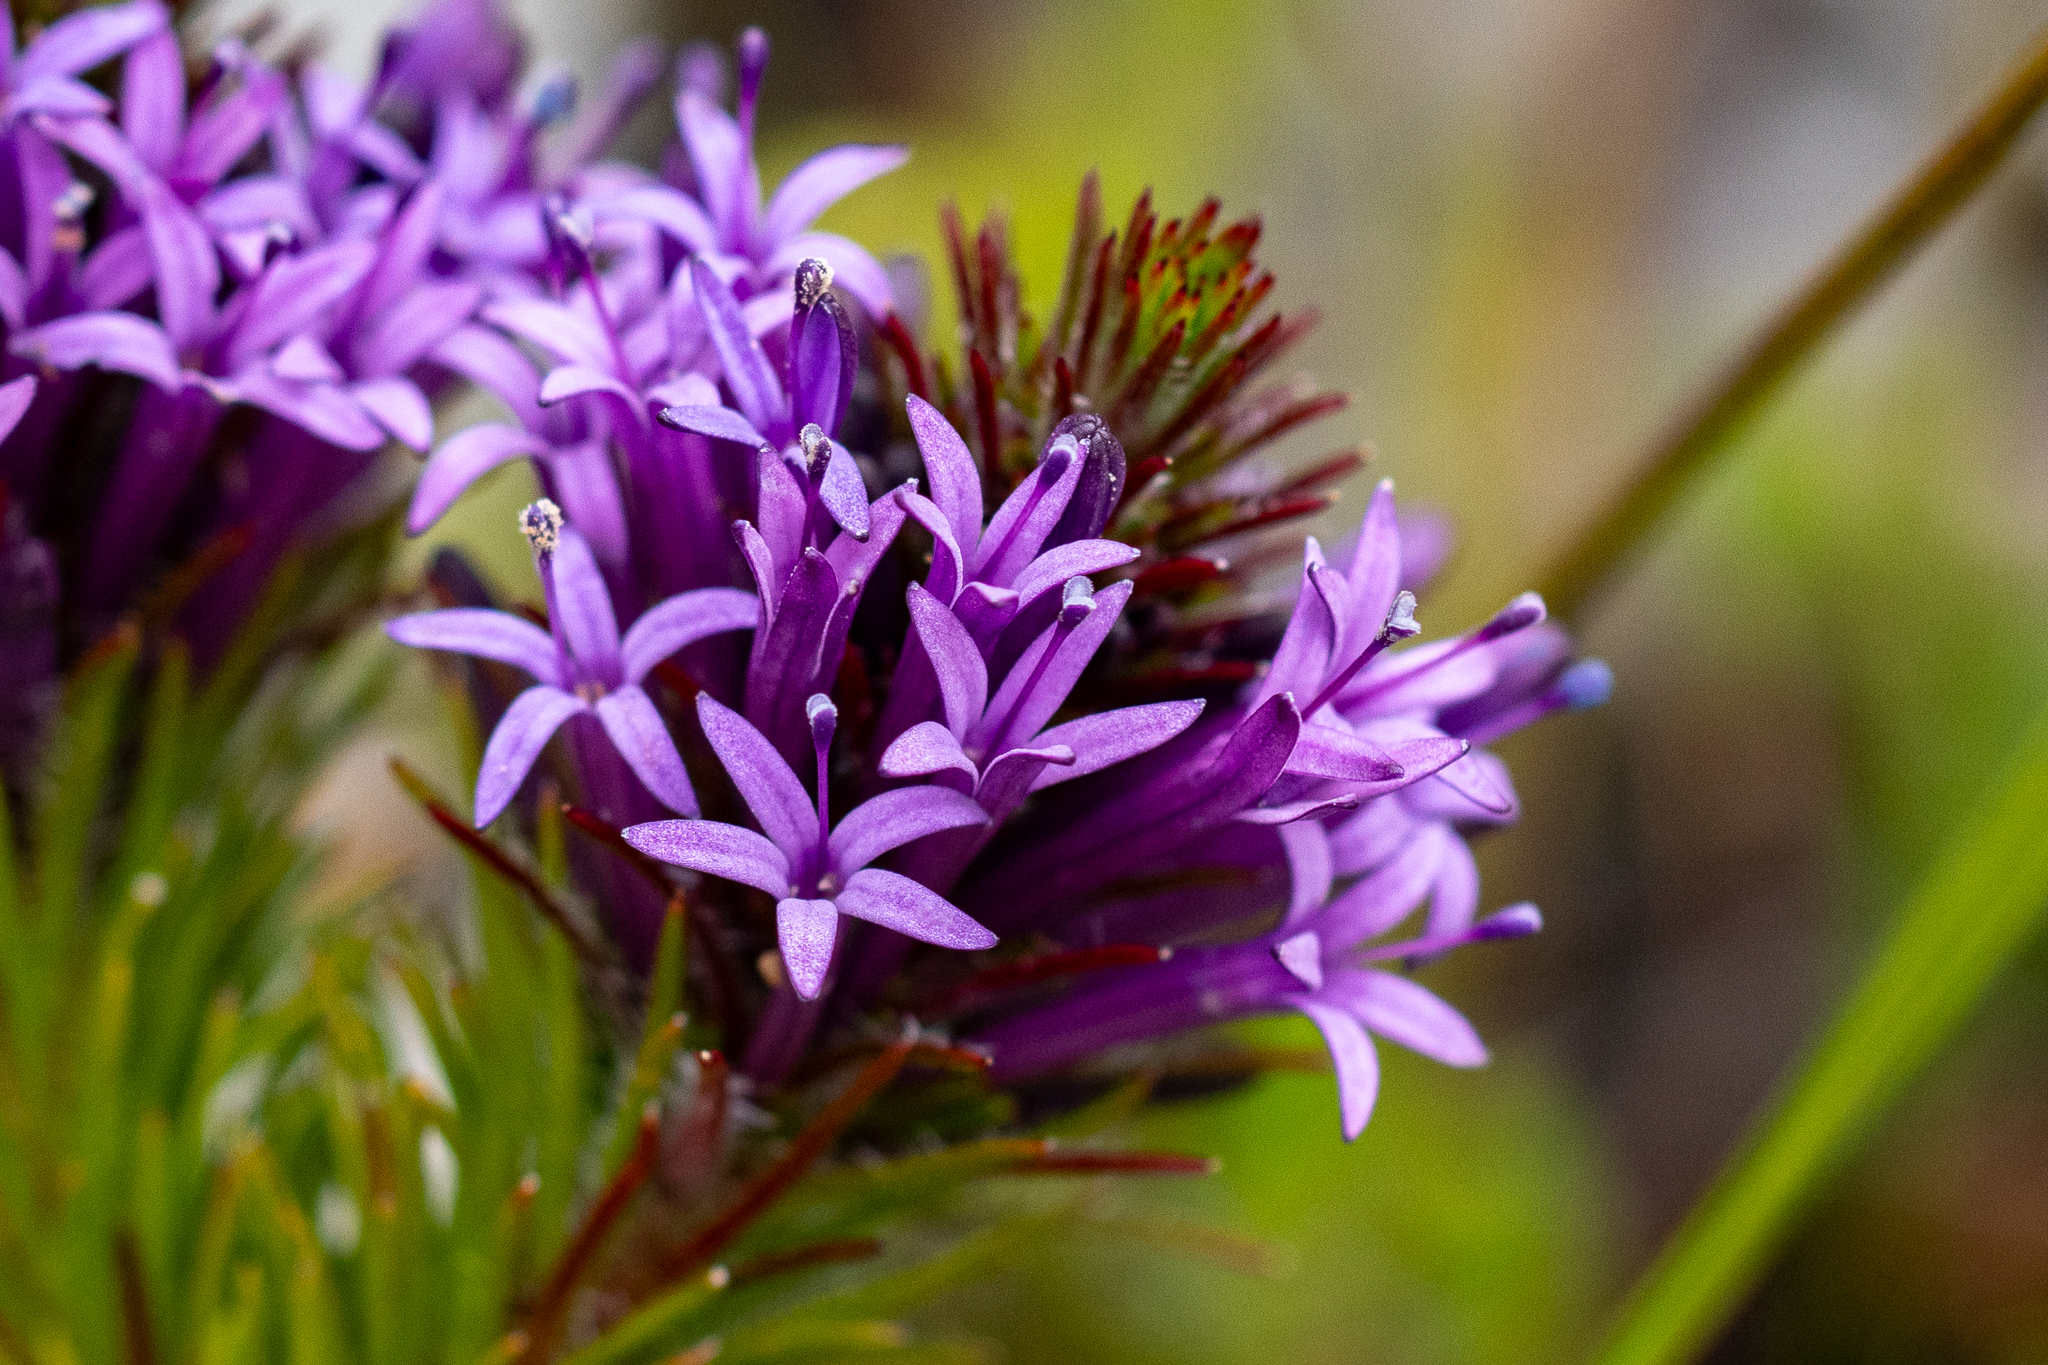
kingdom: Plantae
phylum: Tracheophyta
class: Magnoliopsida
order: Asterales
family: Campanulaceae
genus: Merciera
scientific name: Merciera azurea
